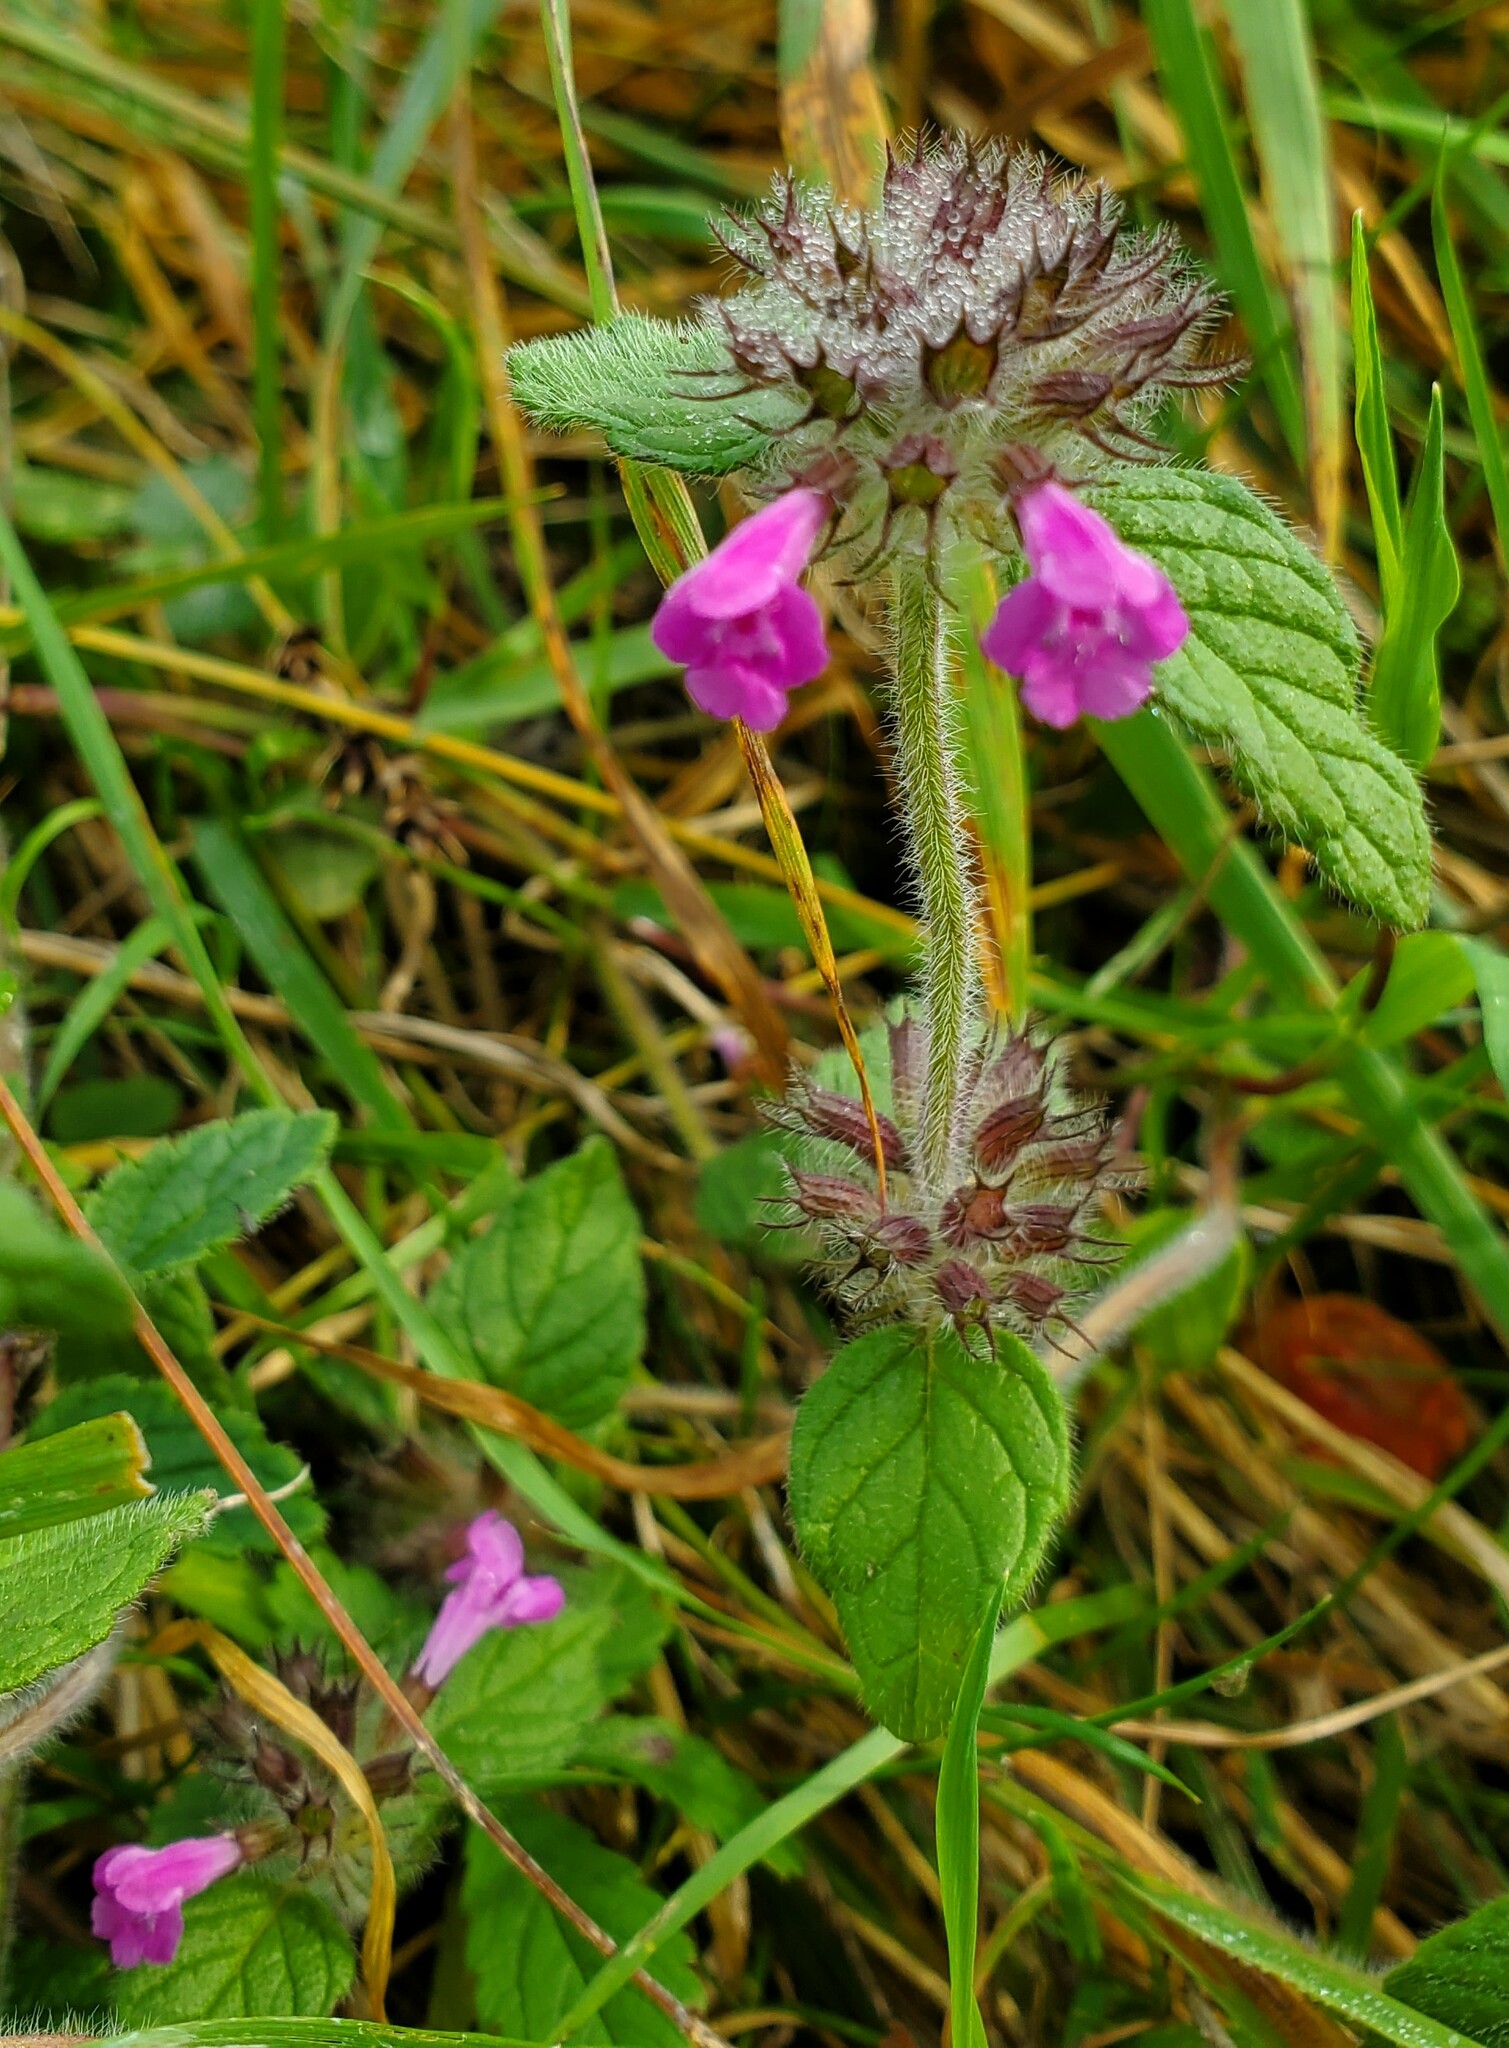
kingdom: Plantae
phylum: Tracheophyta
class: Magnoliopsida
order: Lamiales
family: Lamiaceae
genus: Clinopodium
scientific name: Clinopodium vulgare
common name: Wild basil
